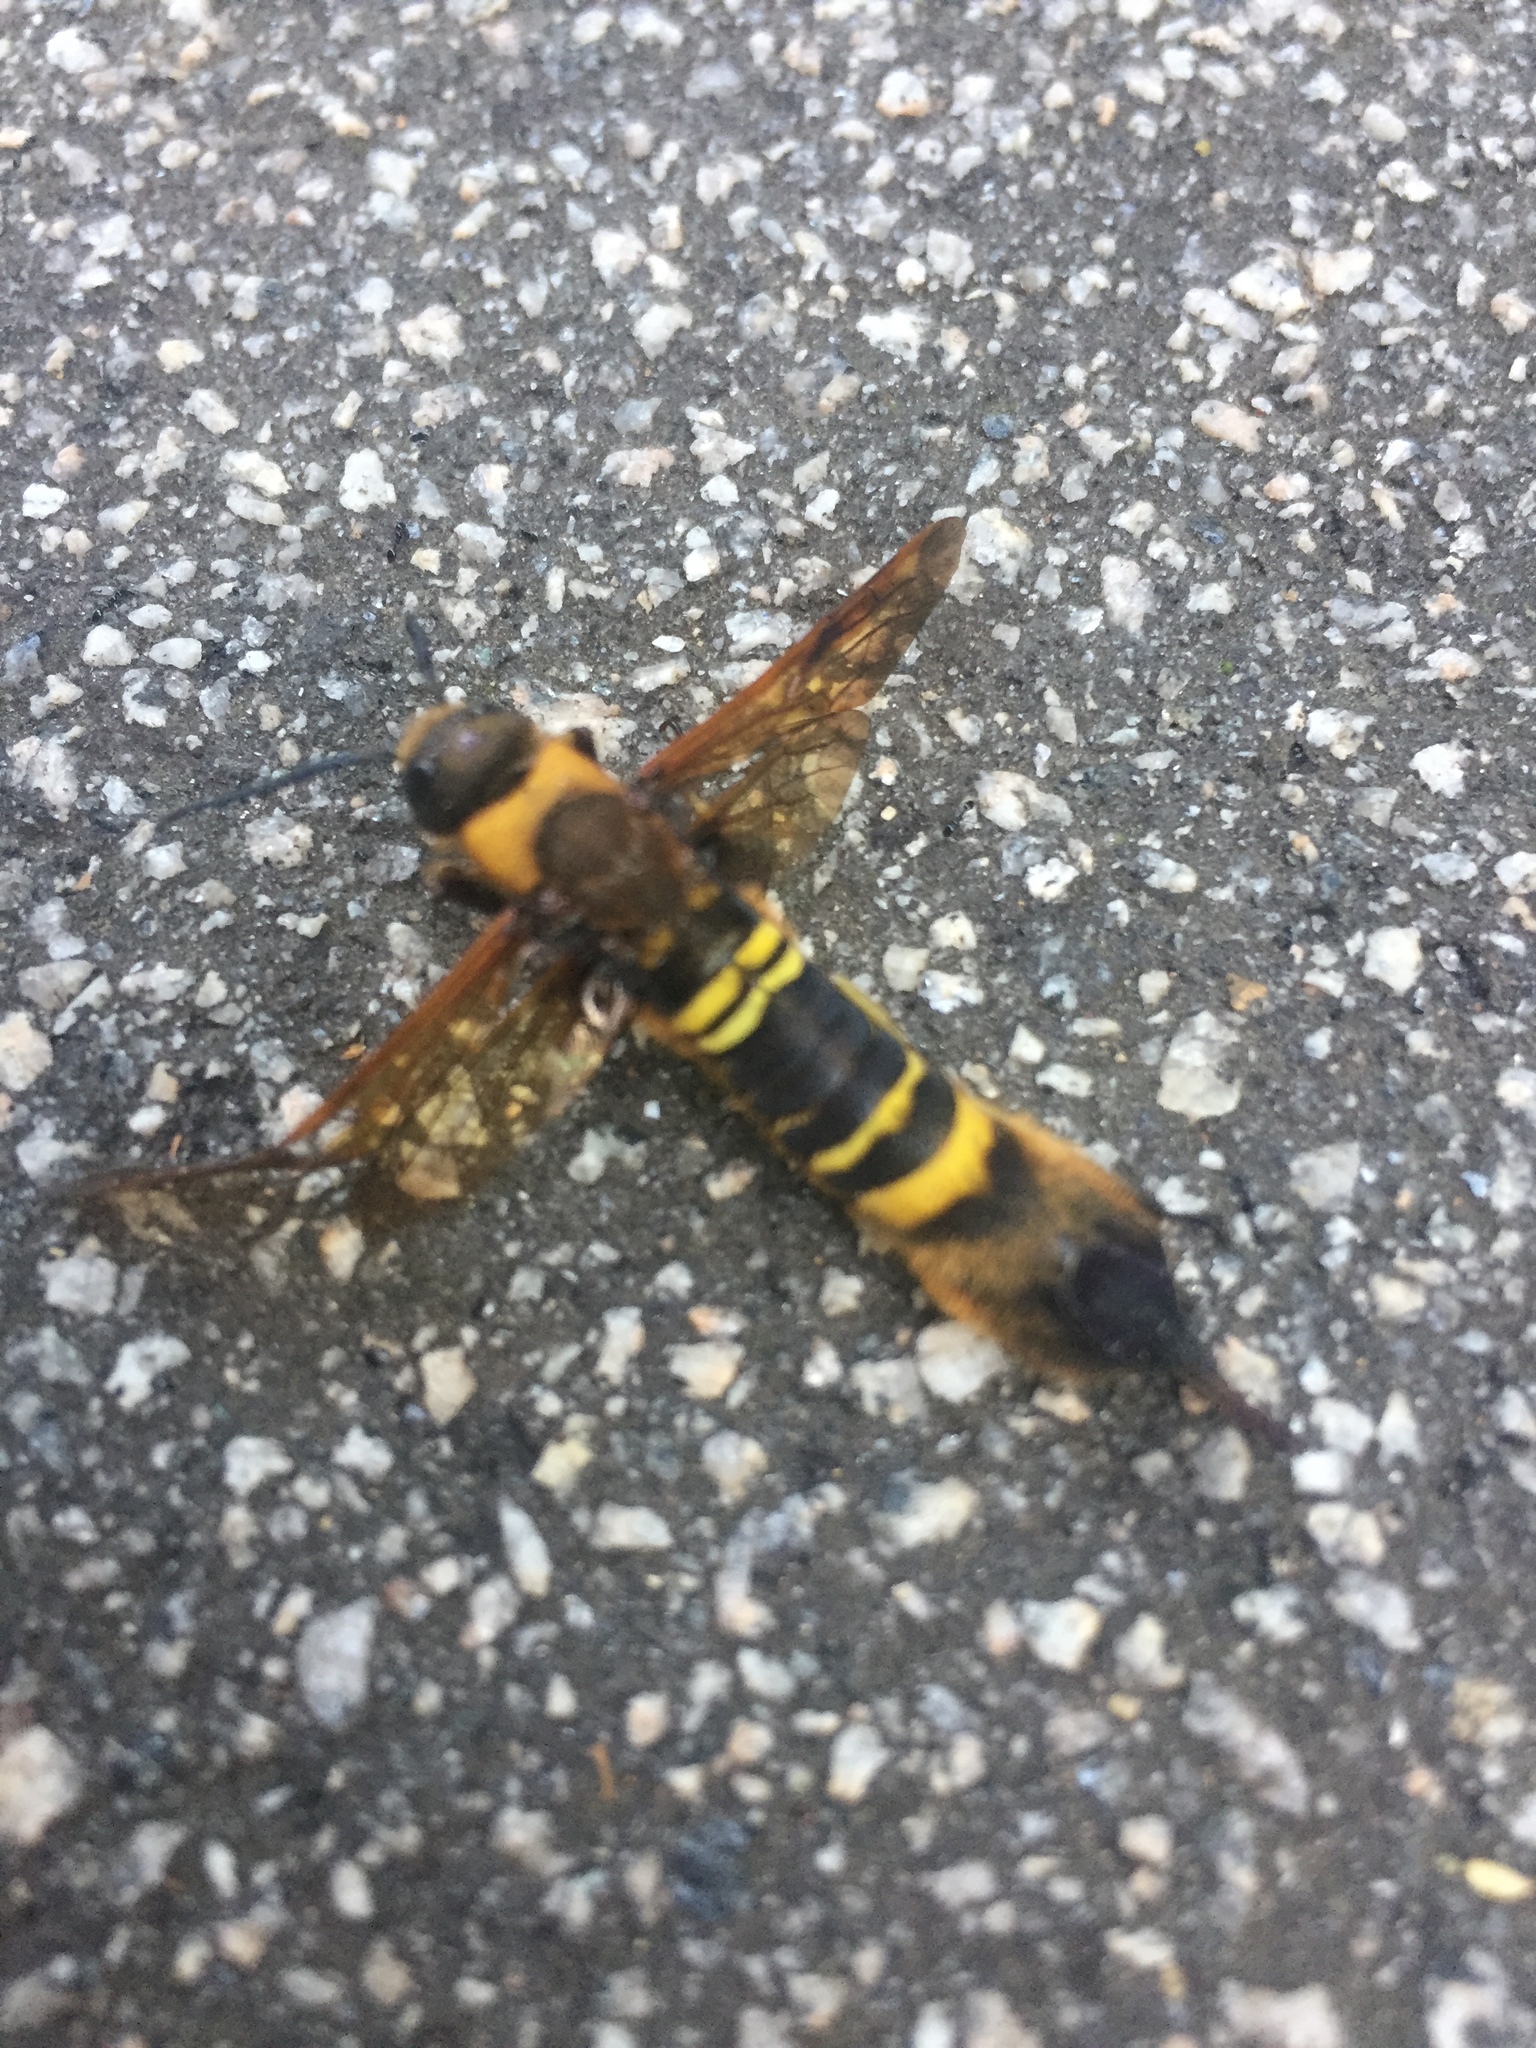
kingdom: Animalia
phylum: Arthropoda
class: Insecta
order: Hymenoptera
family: Siricidae
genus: Eriotremex
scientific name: Eriotremex formosanus
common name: Asian horntail
